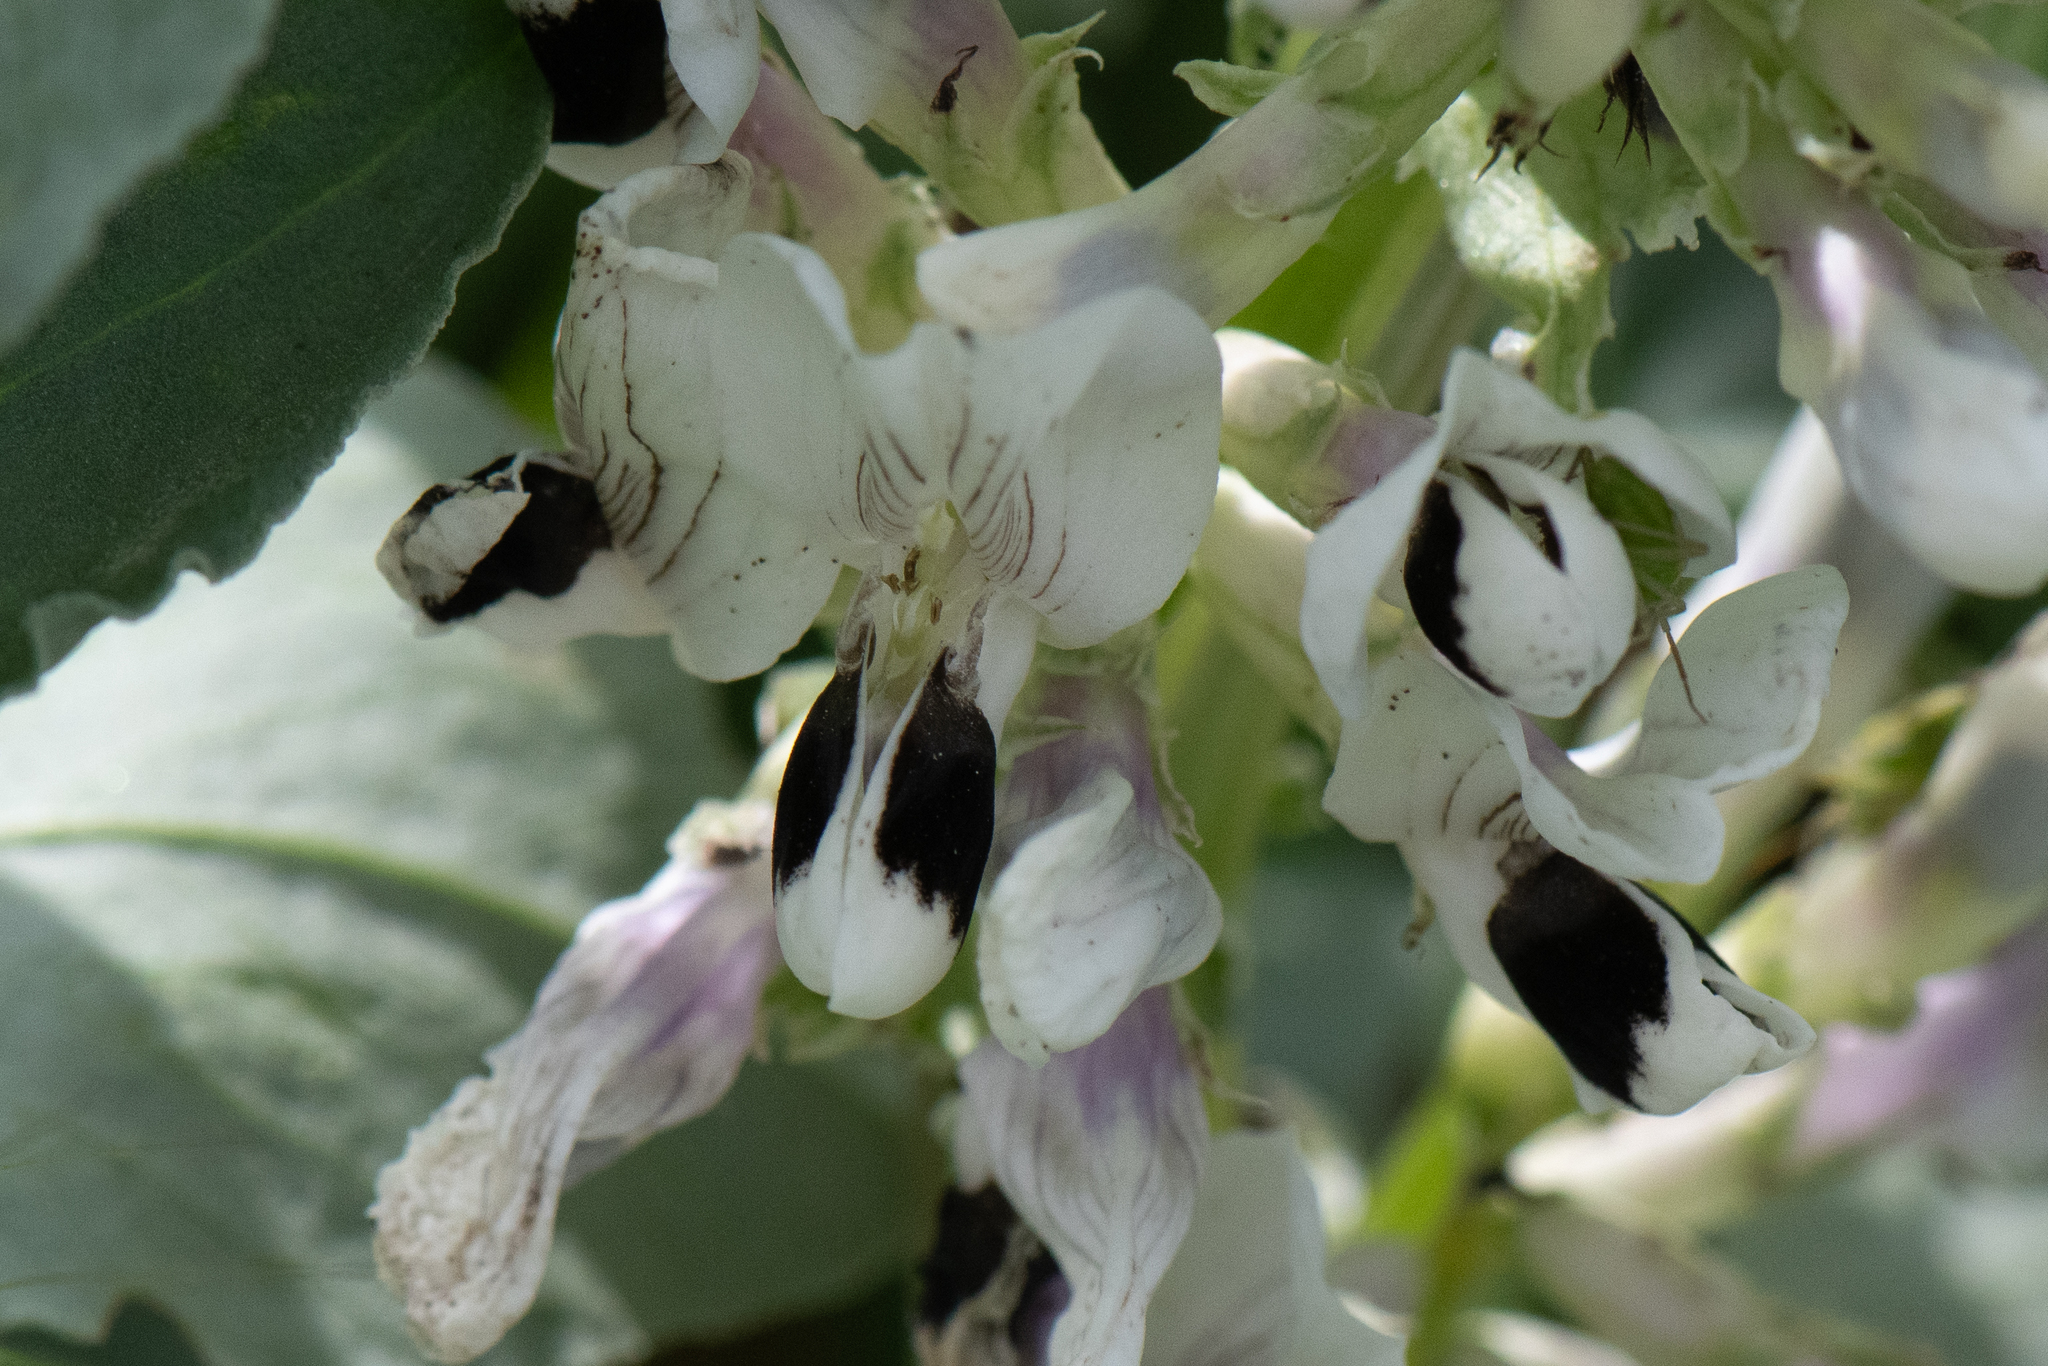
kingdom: Plantae
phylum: Tracheophyta
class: Magnoliopsida
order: Fabales
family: Fabaceae
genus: Vicia
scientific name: Vicia faba
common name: Broad bean
